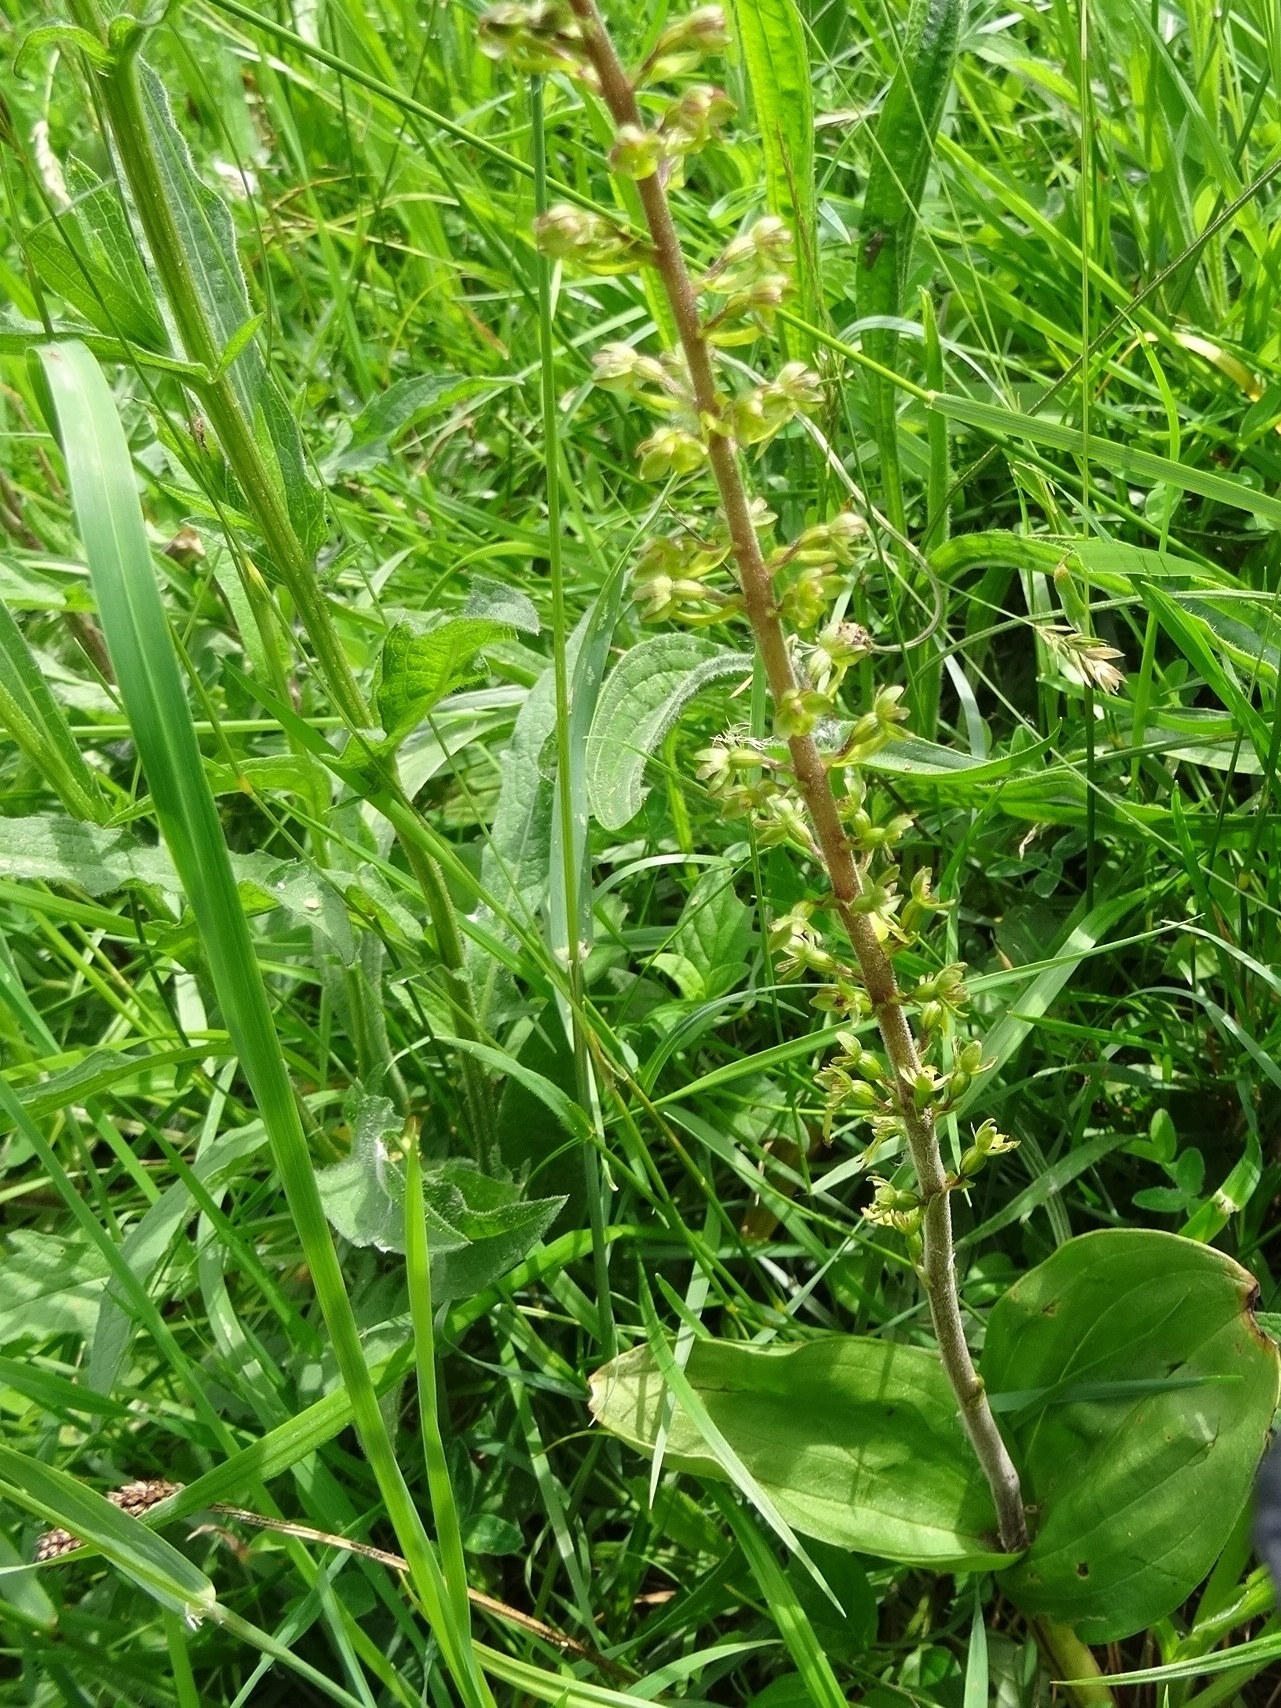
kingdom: Plantae
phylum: Tracheophyta
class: Liliopsida
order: Asparagales
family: Orchidaceae
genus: Neottia
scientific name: Neottia ovata
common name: Common twayblade
